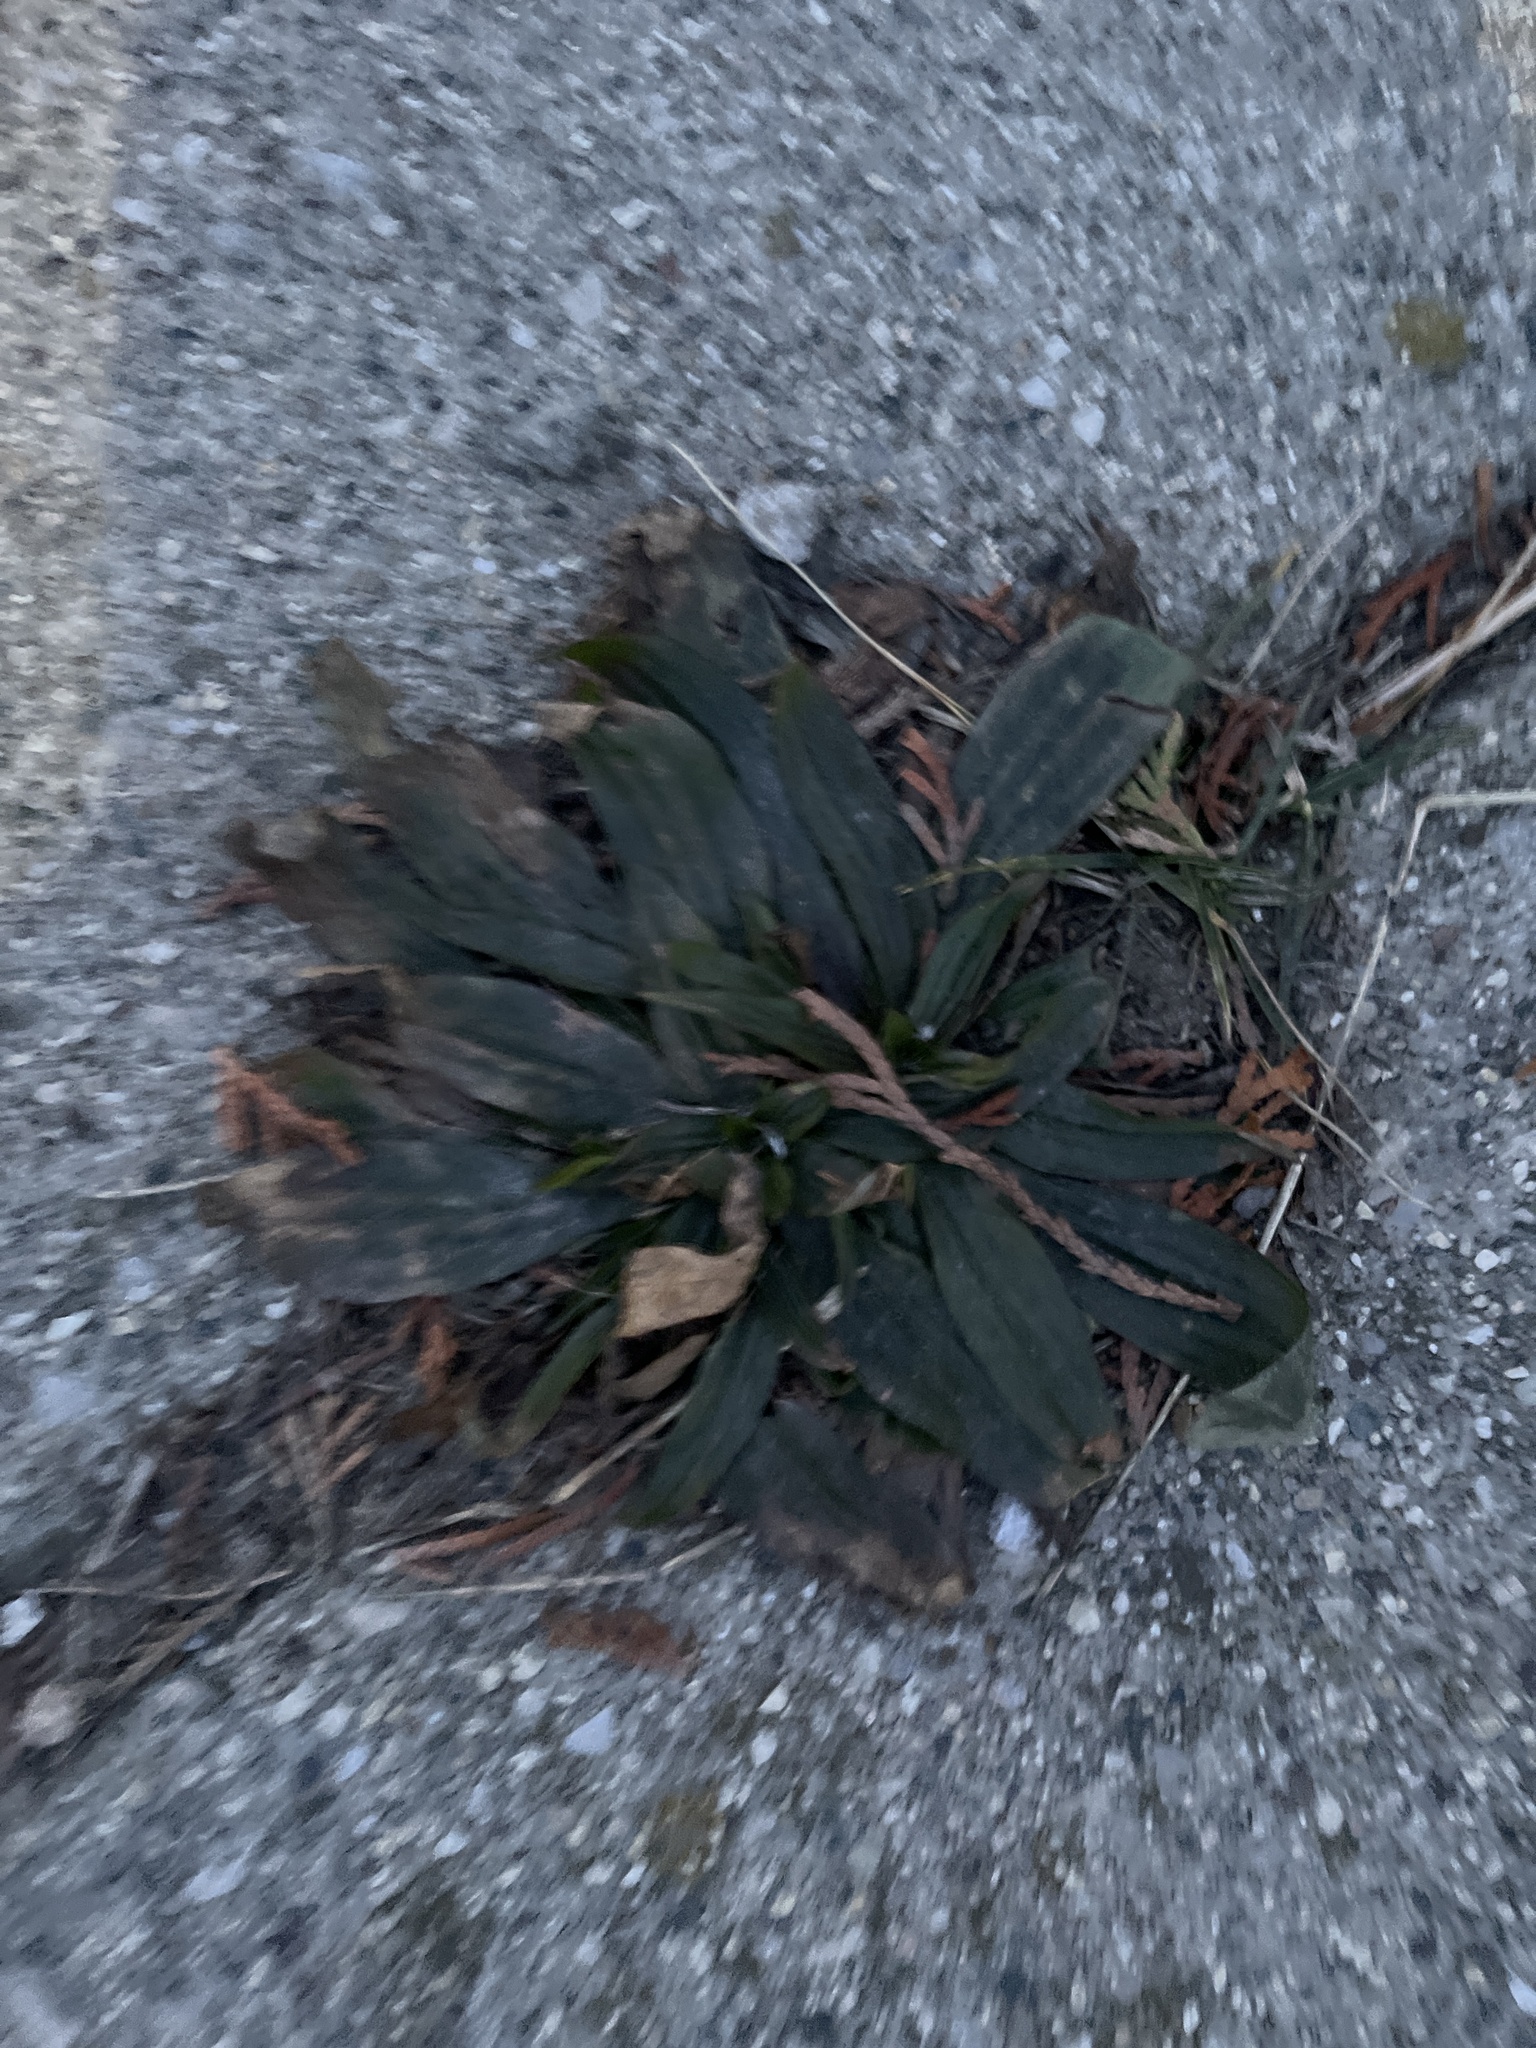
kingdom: Plantae
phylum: Tracheophyta
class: Magnoliopsida
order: Lamiales
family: Plantaginaceae
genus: Plantago
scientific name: Plantago lanceolata
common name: Ribwort plantain
